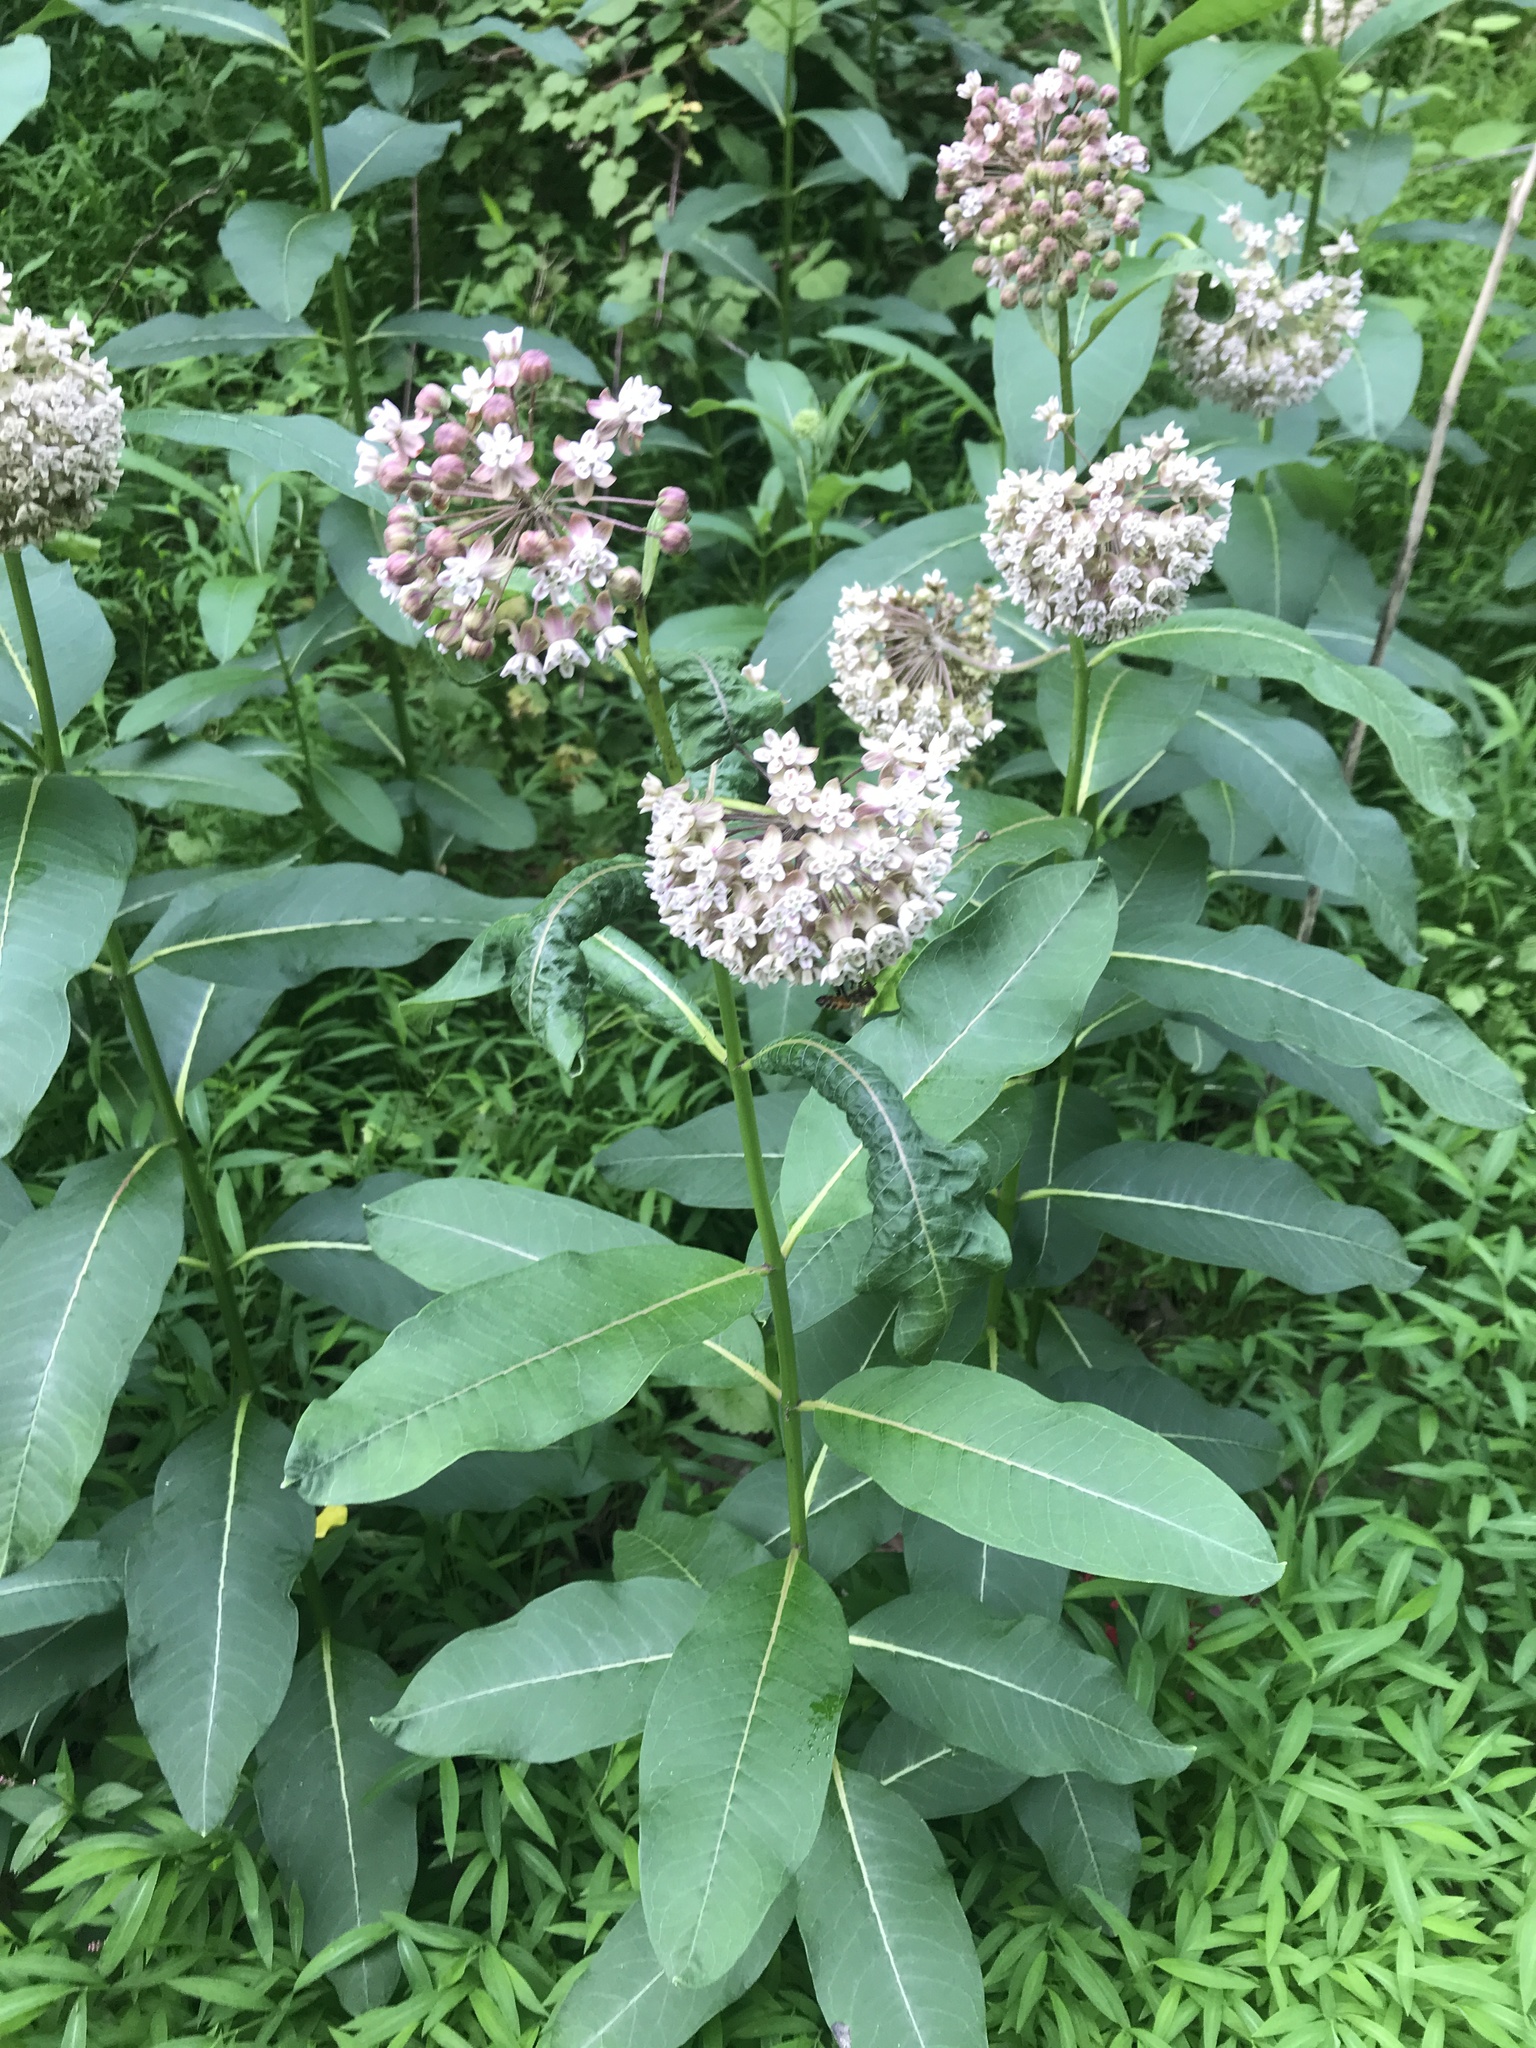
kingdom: Plantae
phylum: Tracheophyta
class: Magnoliopsida
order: Gentianales
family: Apocynaceae
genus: Asclepias
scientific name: Asclepias syriaca
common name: Common milkweed
